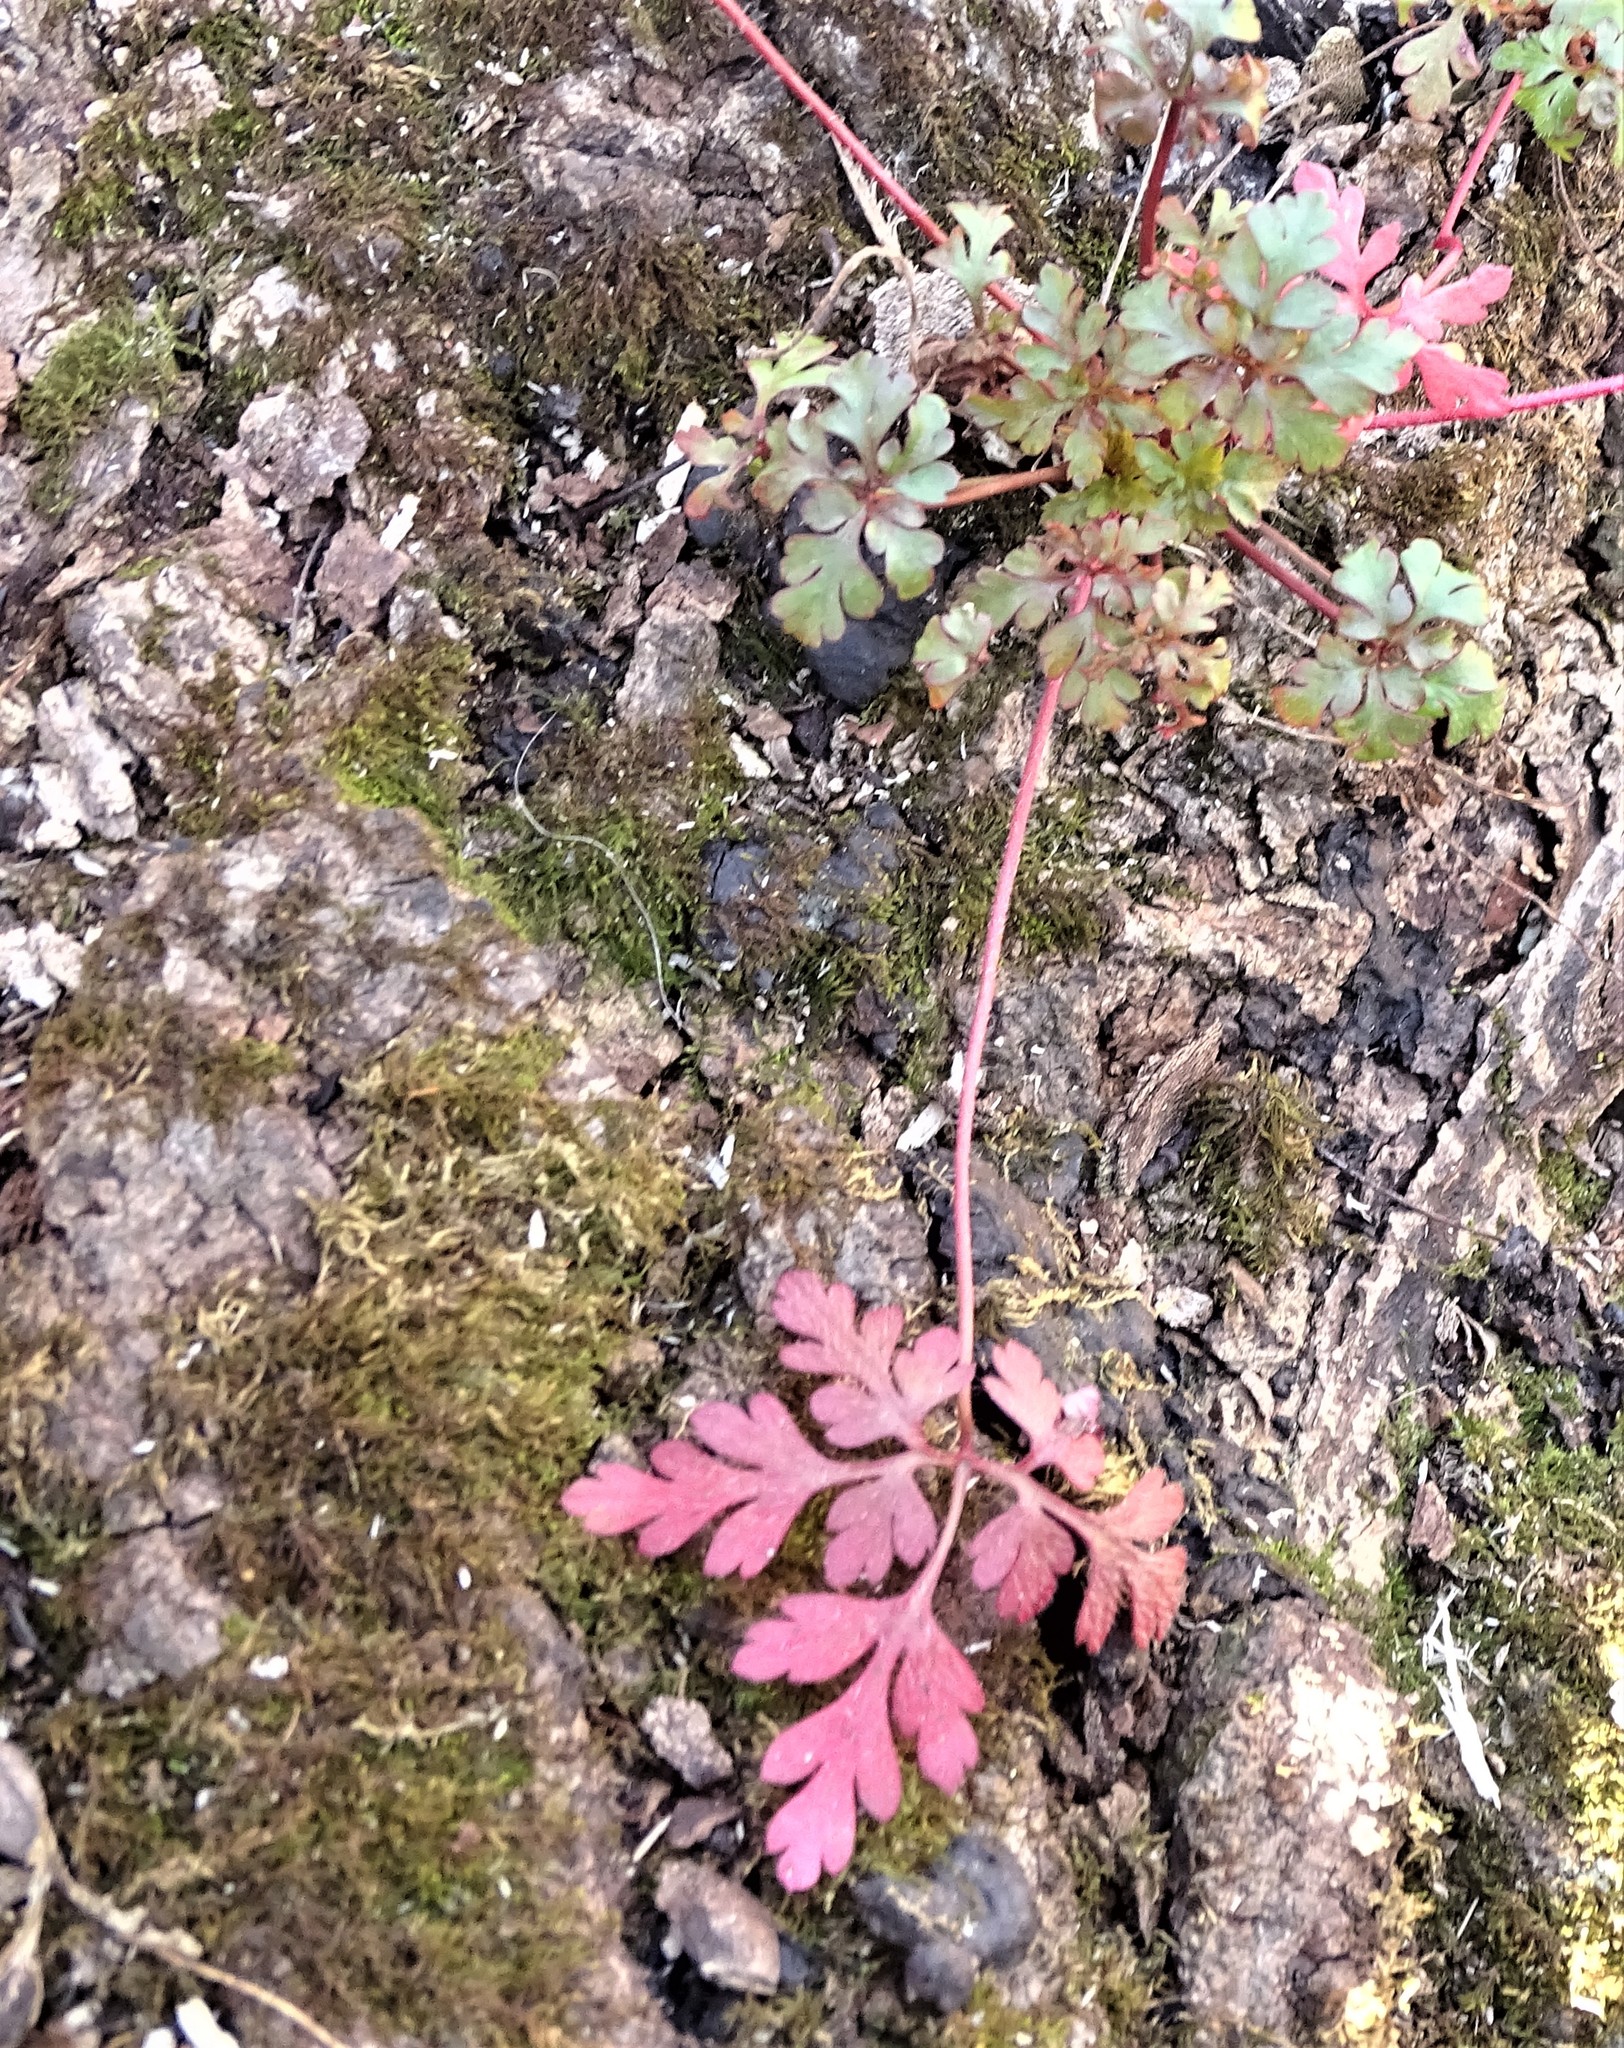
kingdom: Plantae
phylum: Tracheophyta
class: Magnoliopsida
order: Geraniales
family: Geraniaceae
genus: Geranium
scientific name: Geranium robertianum
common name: Herb-robert
